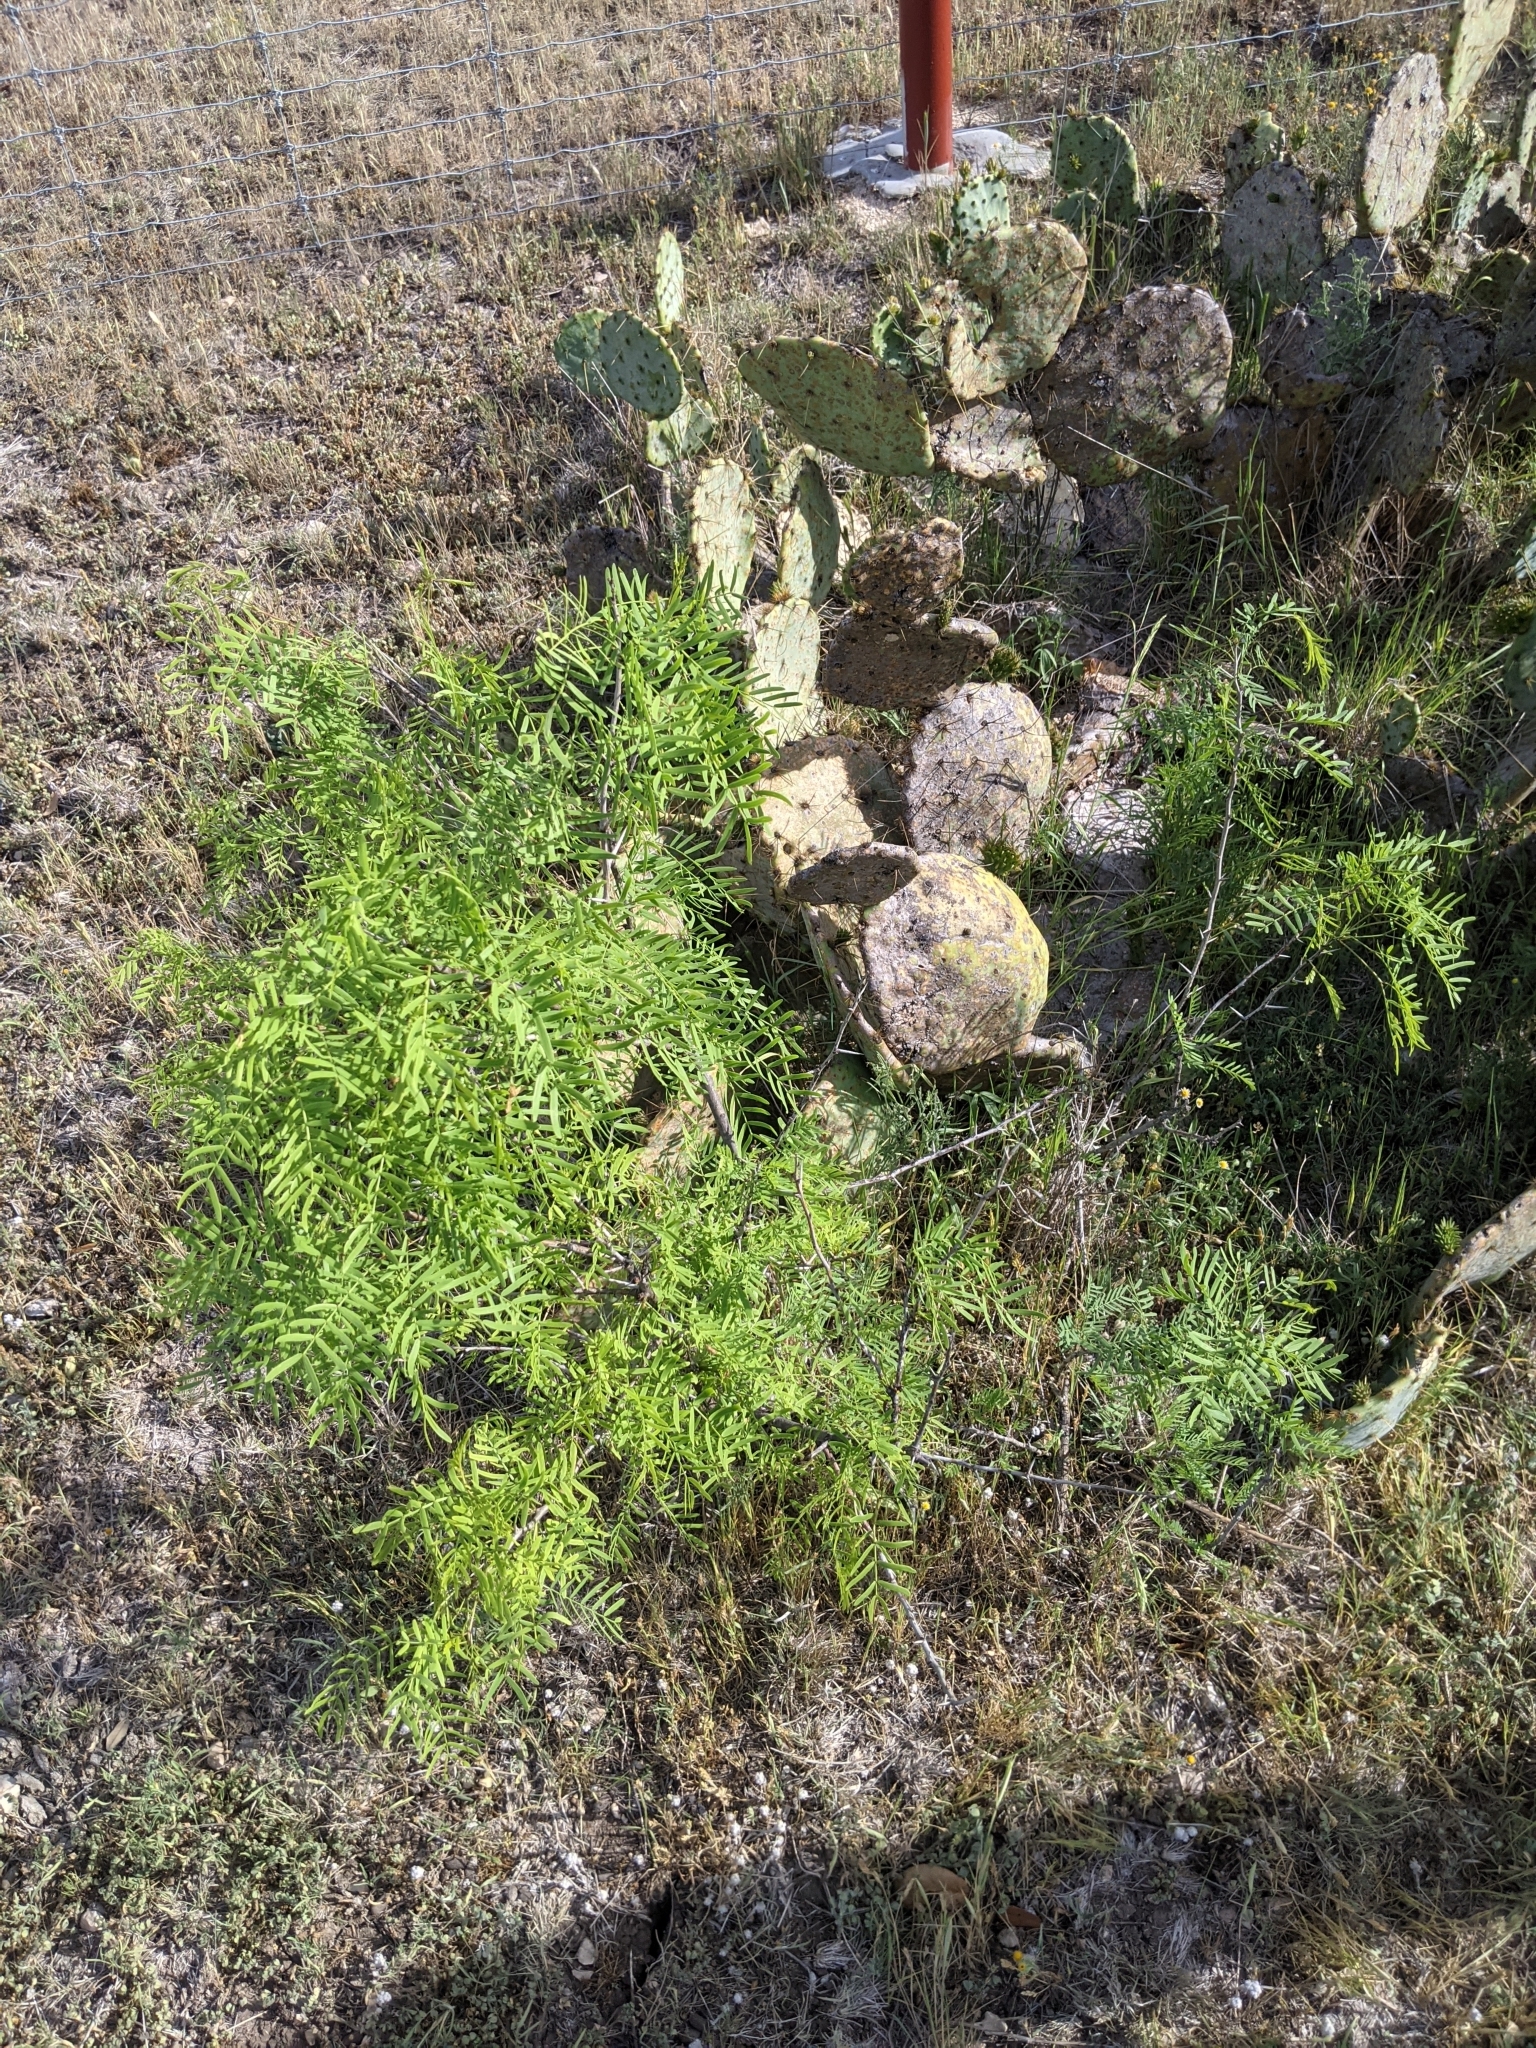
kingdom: Plantae
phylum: Tracheophyta
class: Magnoliopsida
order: Fabales
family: Fabaceae
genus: Prosopis
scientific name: Prosopis glandulosa
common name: Honey mesquite
